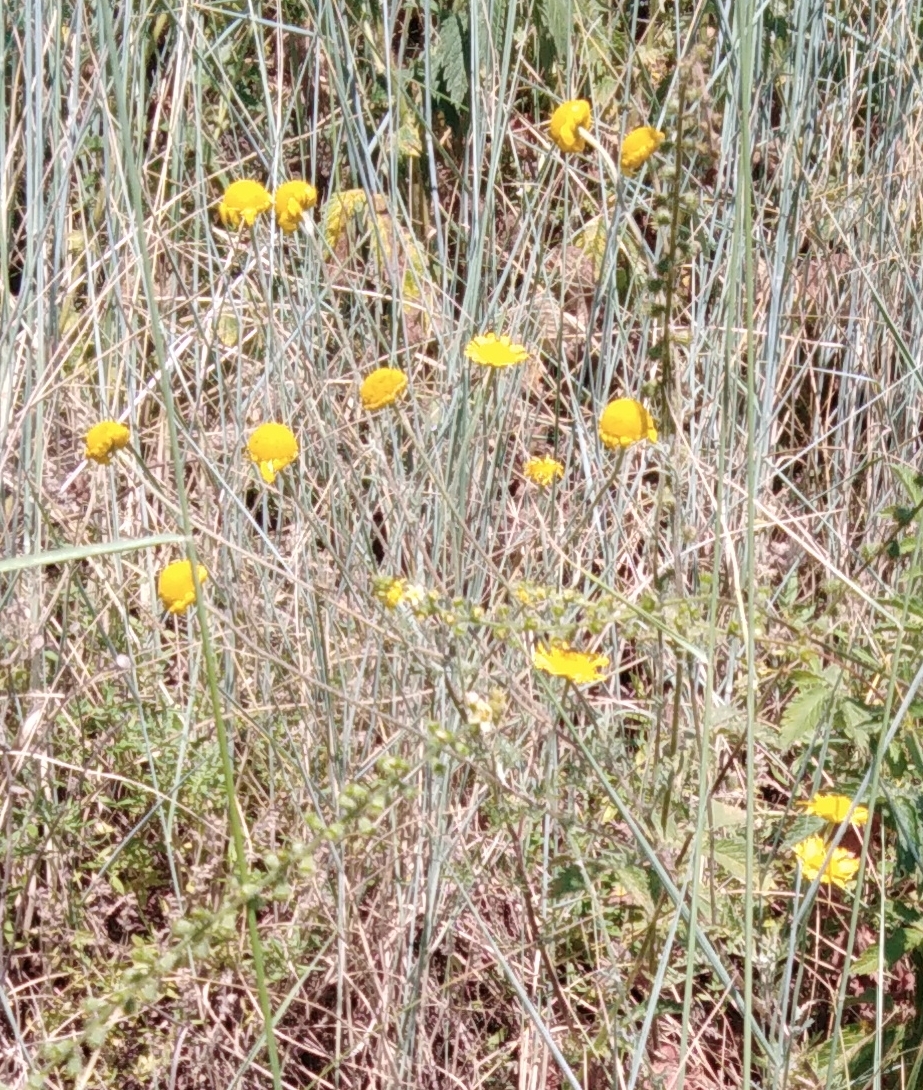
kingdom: Plantae
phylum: Tracheophyta
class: Magnoliopsida
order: Asterales
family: Asteraceae
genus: Cota
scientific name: Cota tinctoria
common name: Golden chamomile
